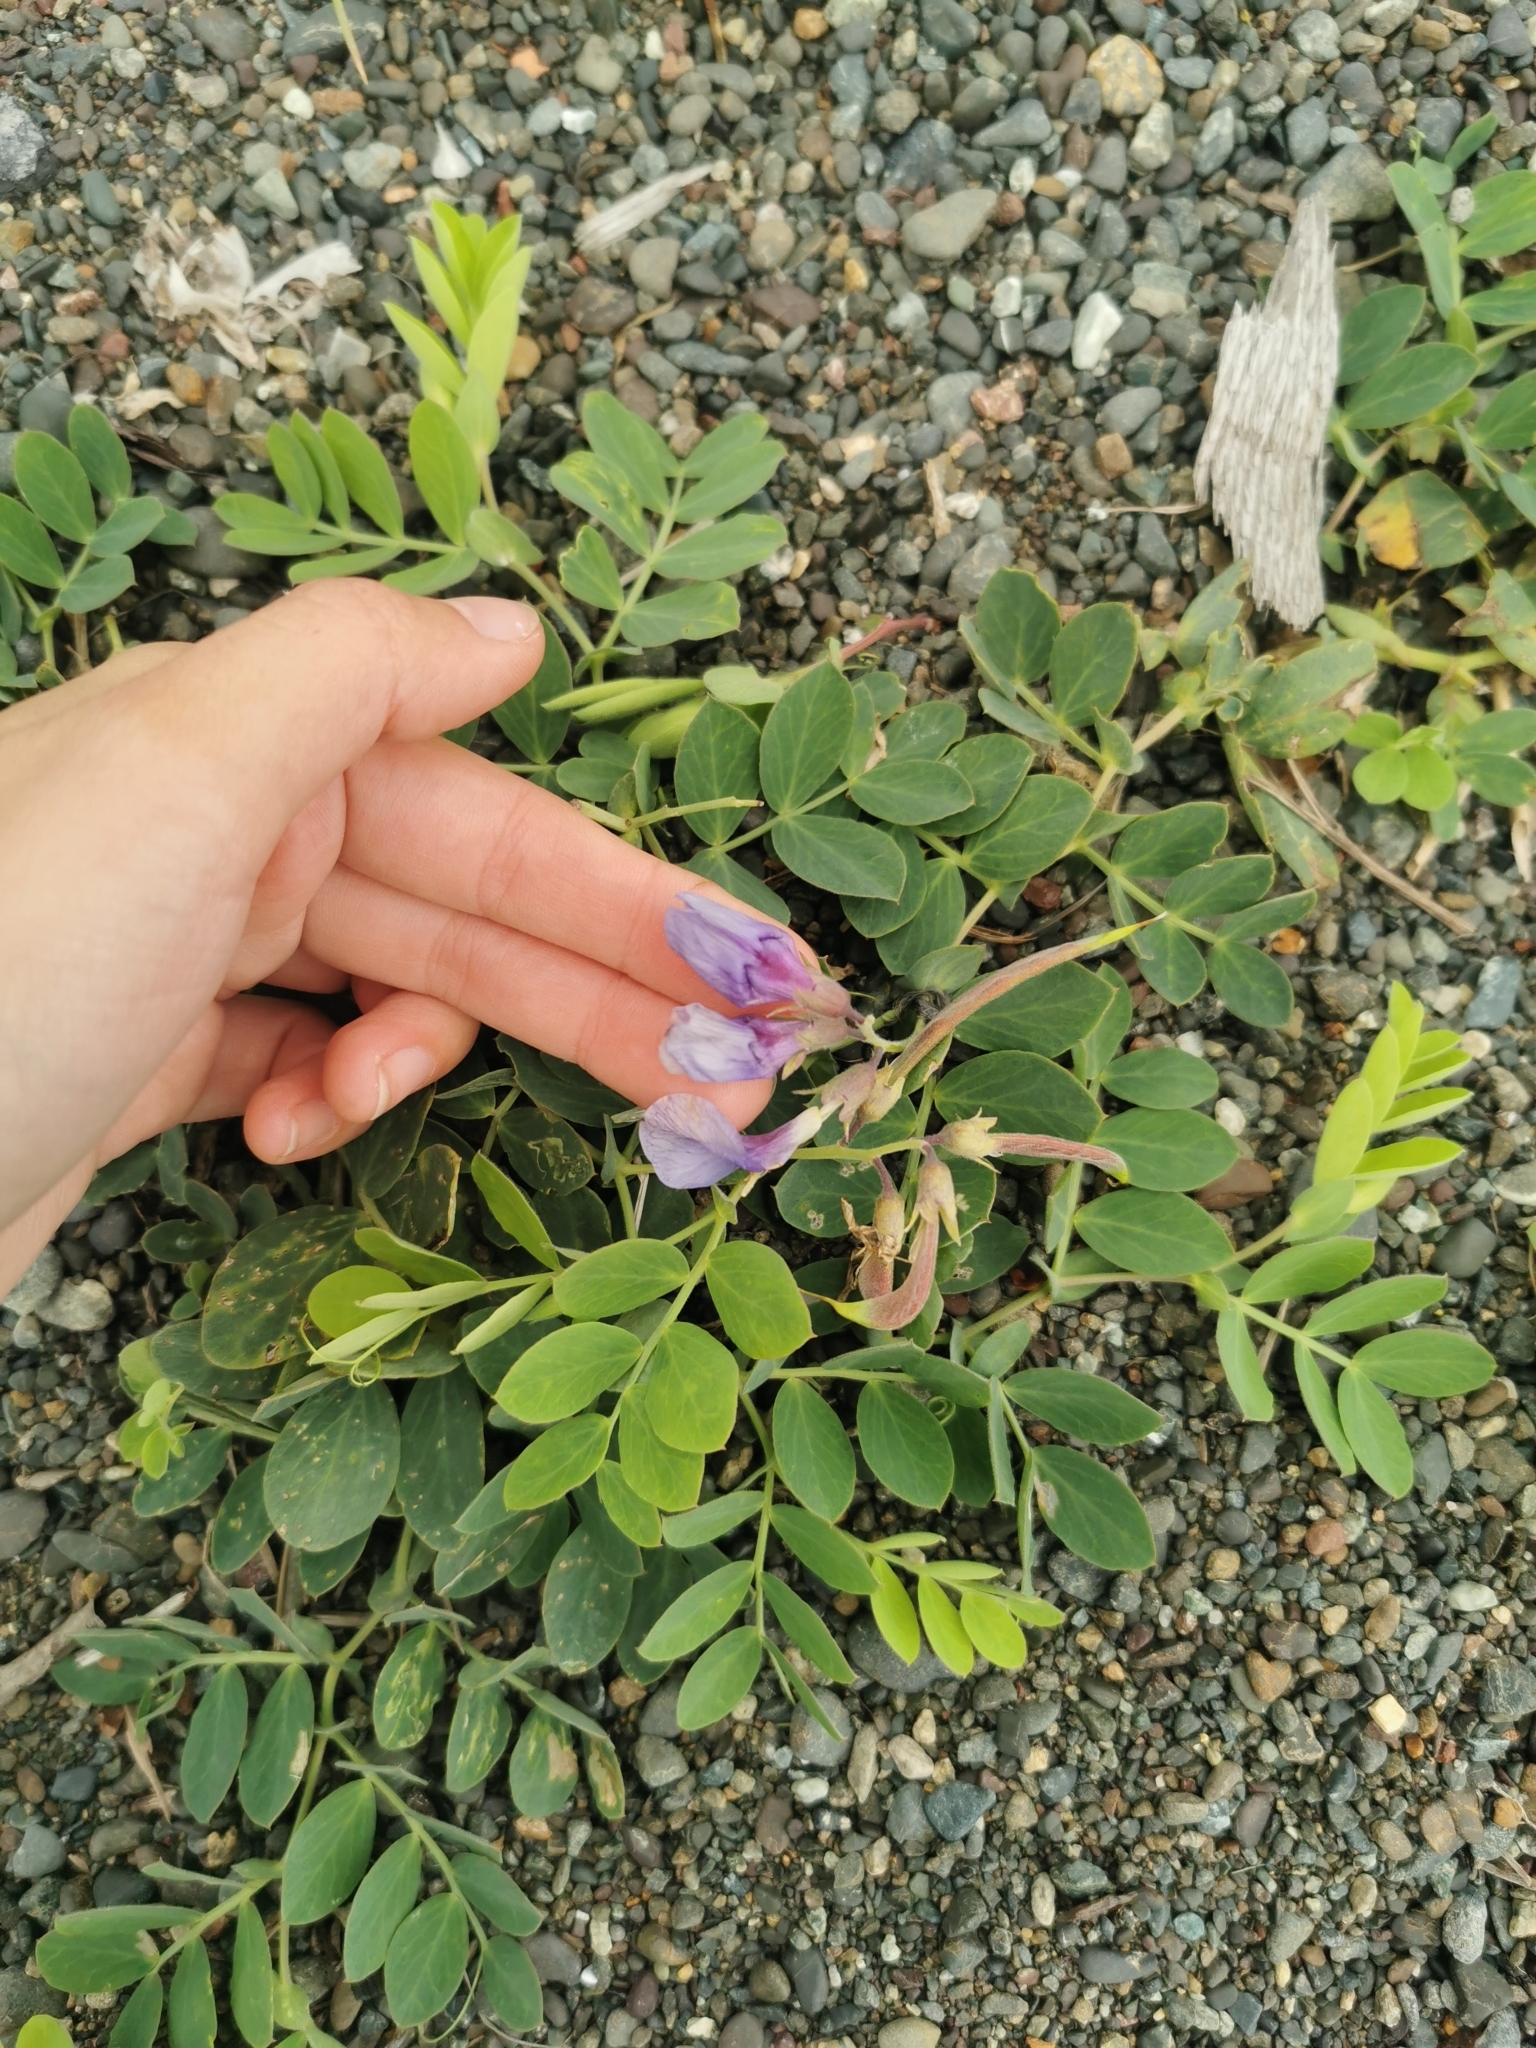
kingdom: Plantae
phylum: Tracheophyta
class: Magnoliopsida
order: Fabales
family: Fabaceae
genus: Lathyrus
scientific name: Lathyrus japonicus
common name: Sea pea
